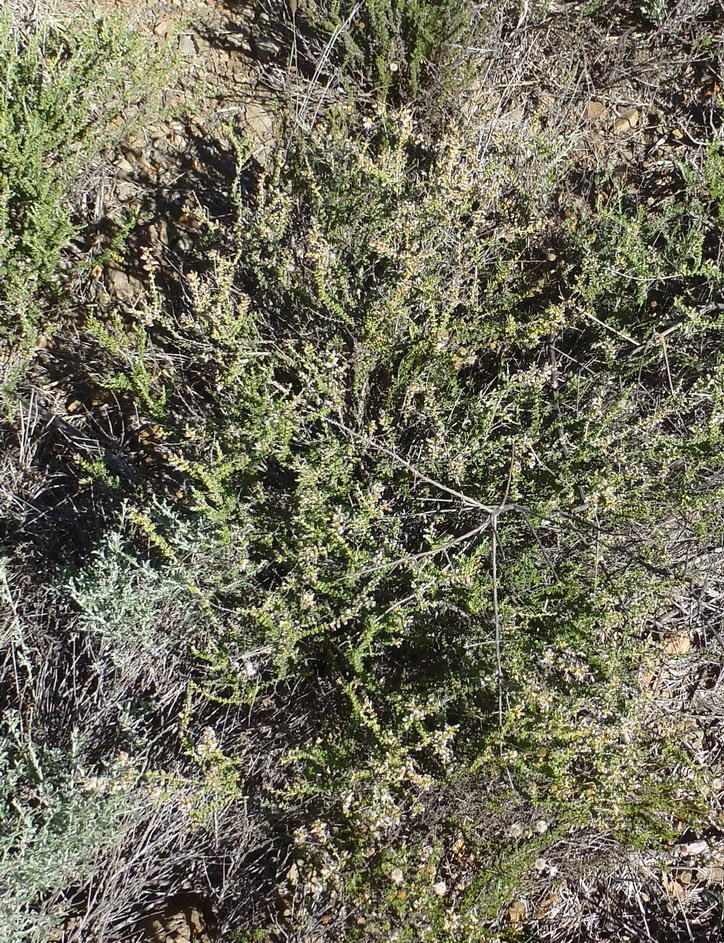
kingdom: Plantae
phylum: Tracheophyta
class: Magnoliopsida
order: Asterales
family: Asteraceae
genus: Eriocephalus
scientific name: Eriocephalus ericoides
